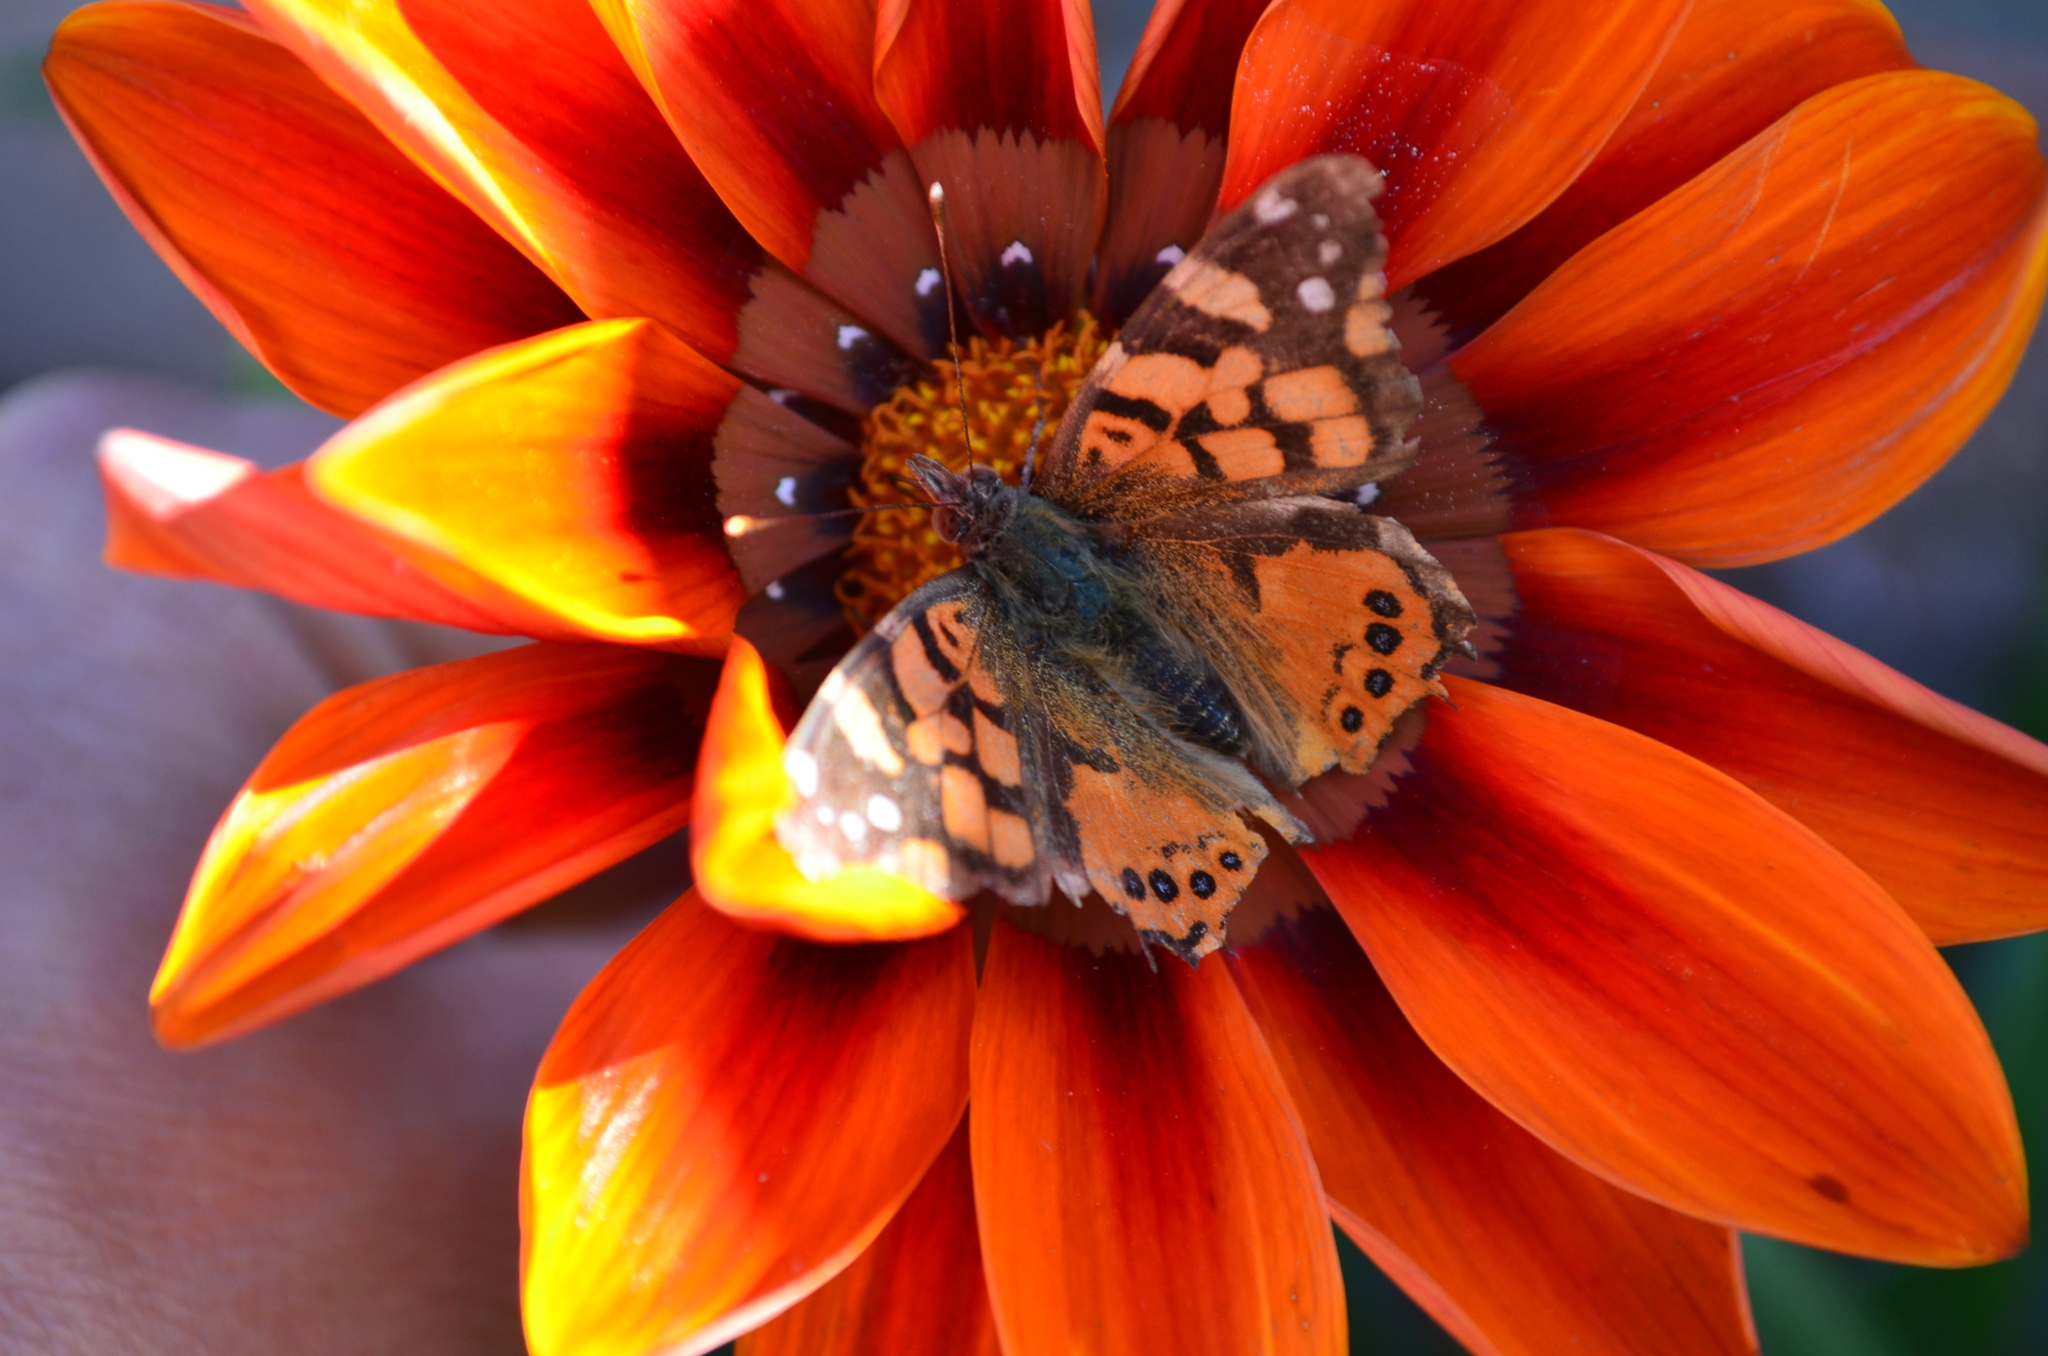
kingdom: Animalia
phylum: Arthropoda
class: Insecta
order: Lepidoptera
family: Nymphalidae
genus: Vanessa
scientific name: Vanessa carye
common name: Subtropical lady
